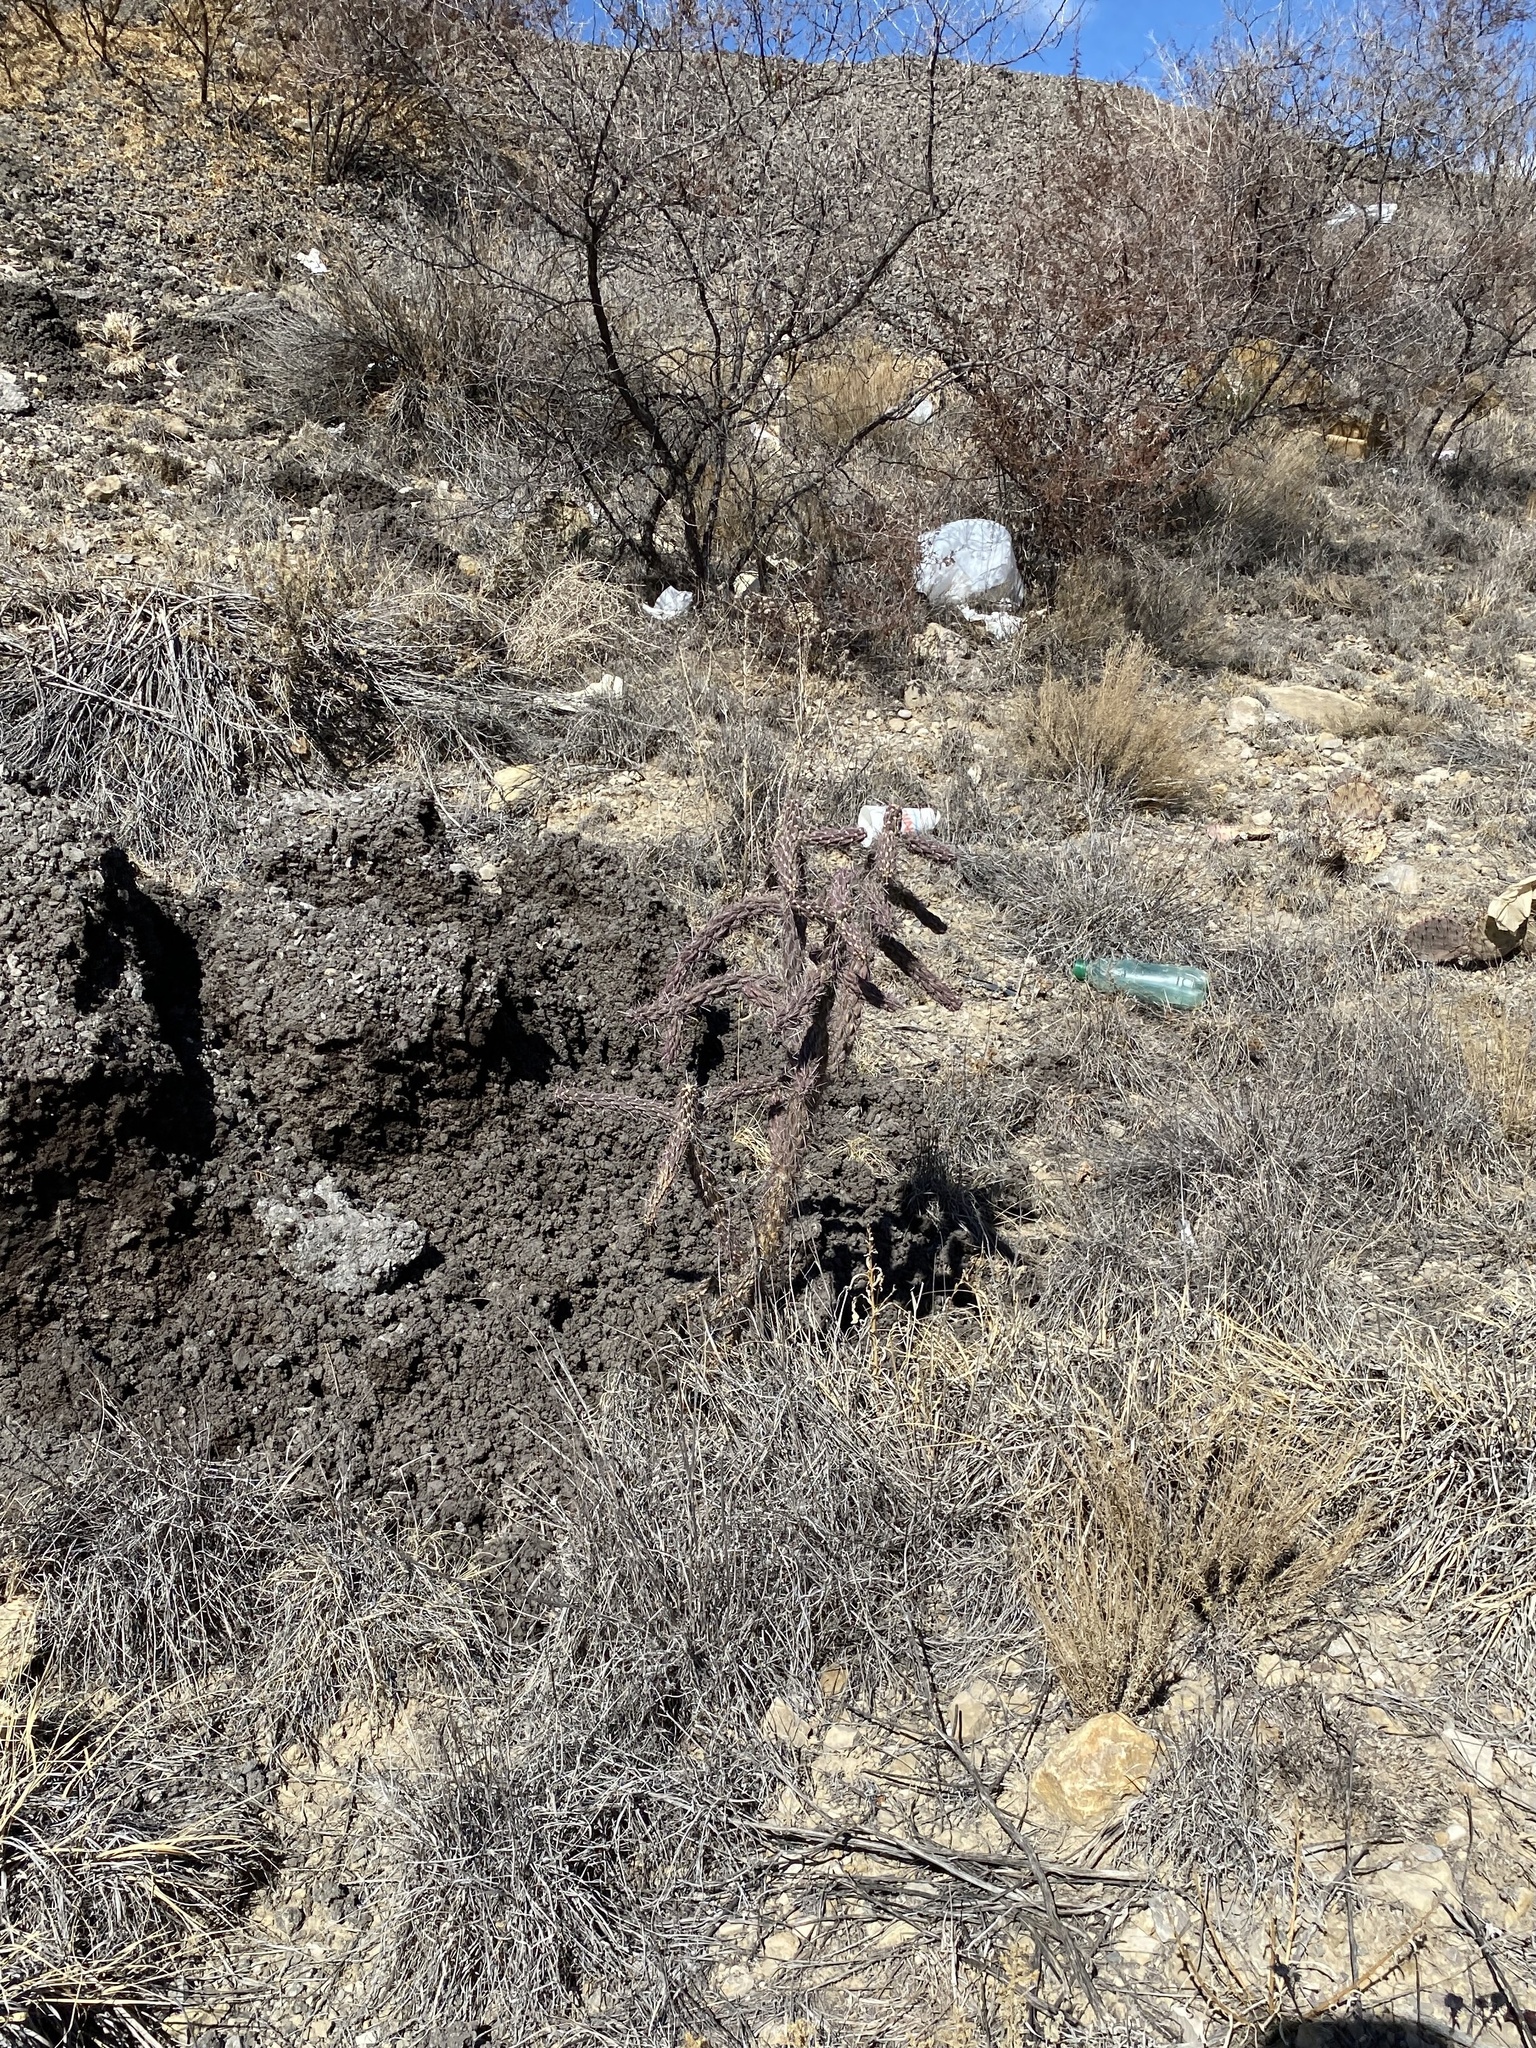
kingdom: Plantae
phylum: Tracheophyta
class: Magnoliopsida
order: Caryophyllales
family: Cactaceae
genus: Cylindropuntia
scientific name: Cylindropuntia imbricata
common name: Candelabrum cactus
